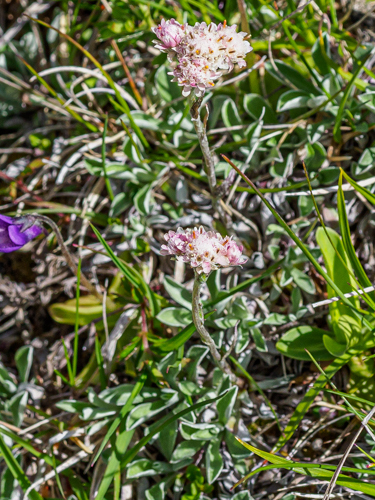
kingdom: Plantae
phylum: Tracheophyta
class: Magnoliopsida
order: Asterales
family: Asteraceae
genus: Antennaria
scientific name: Antennaria dioica
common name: Mountain everlasting
